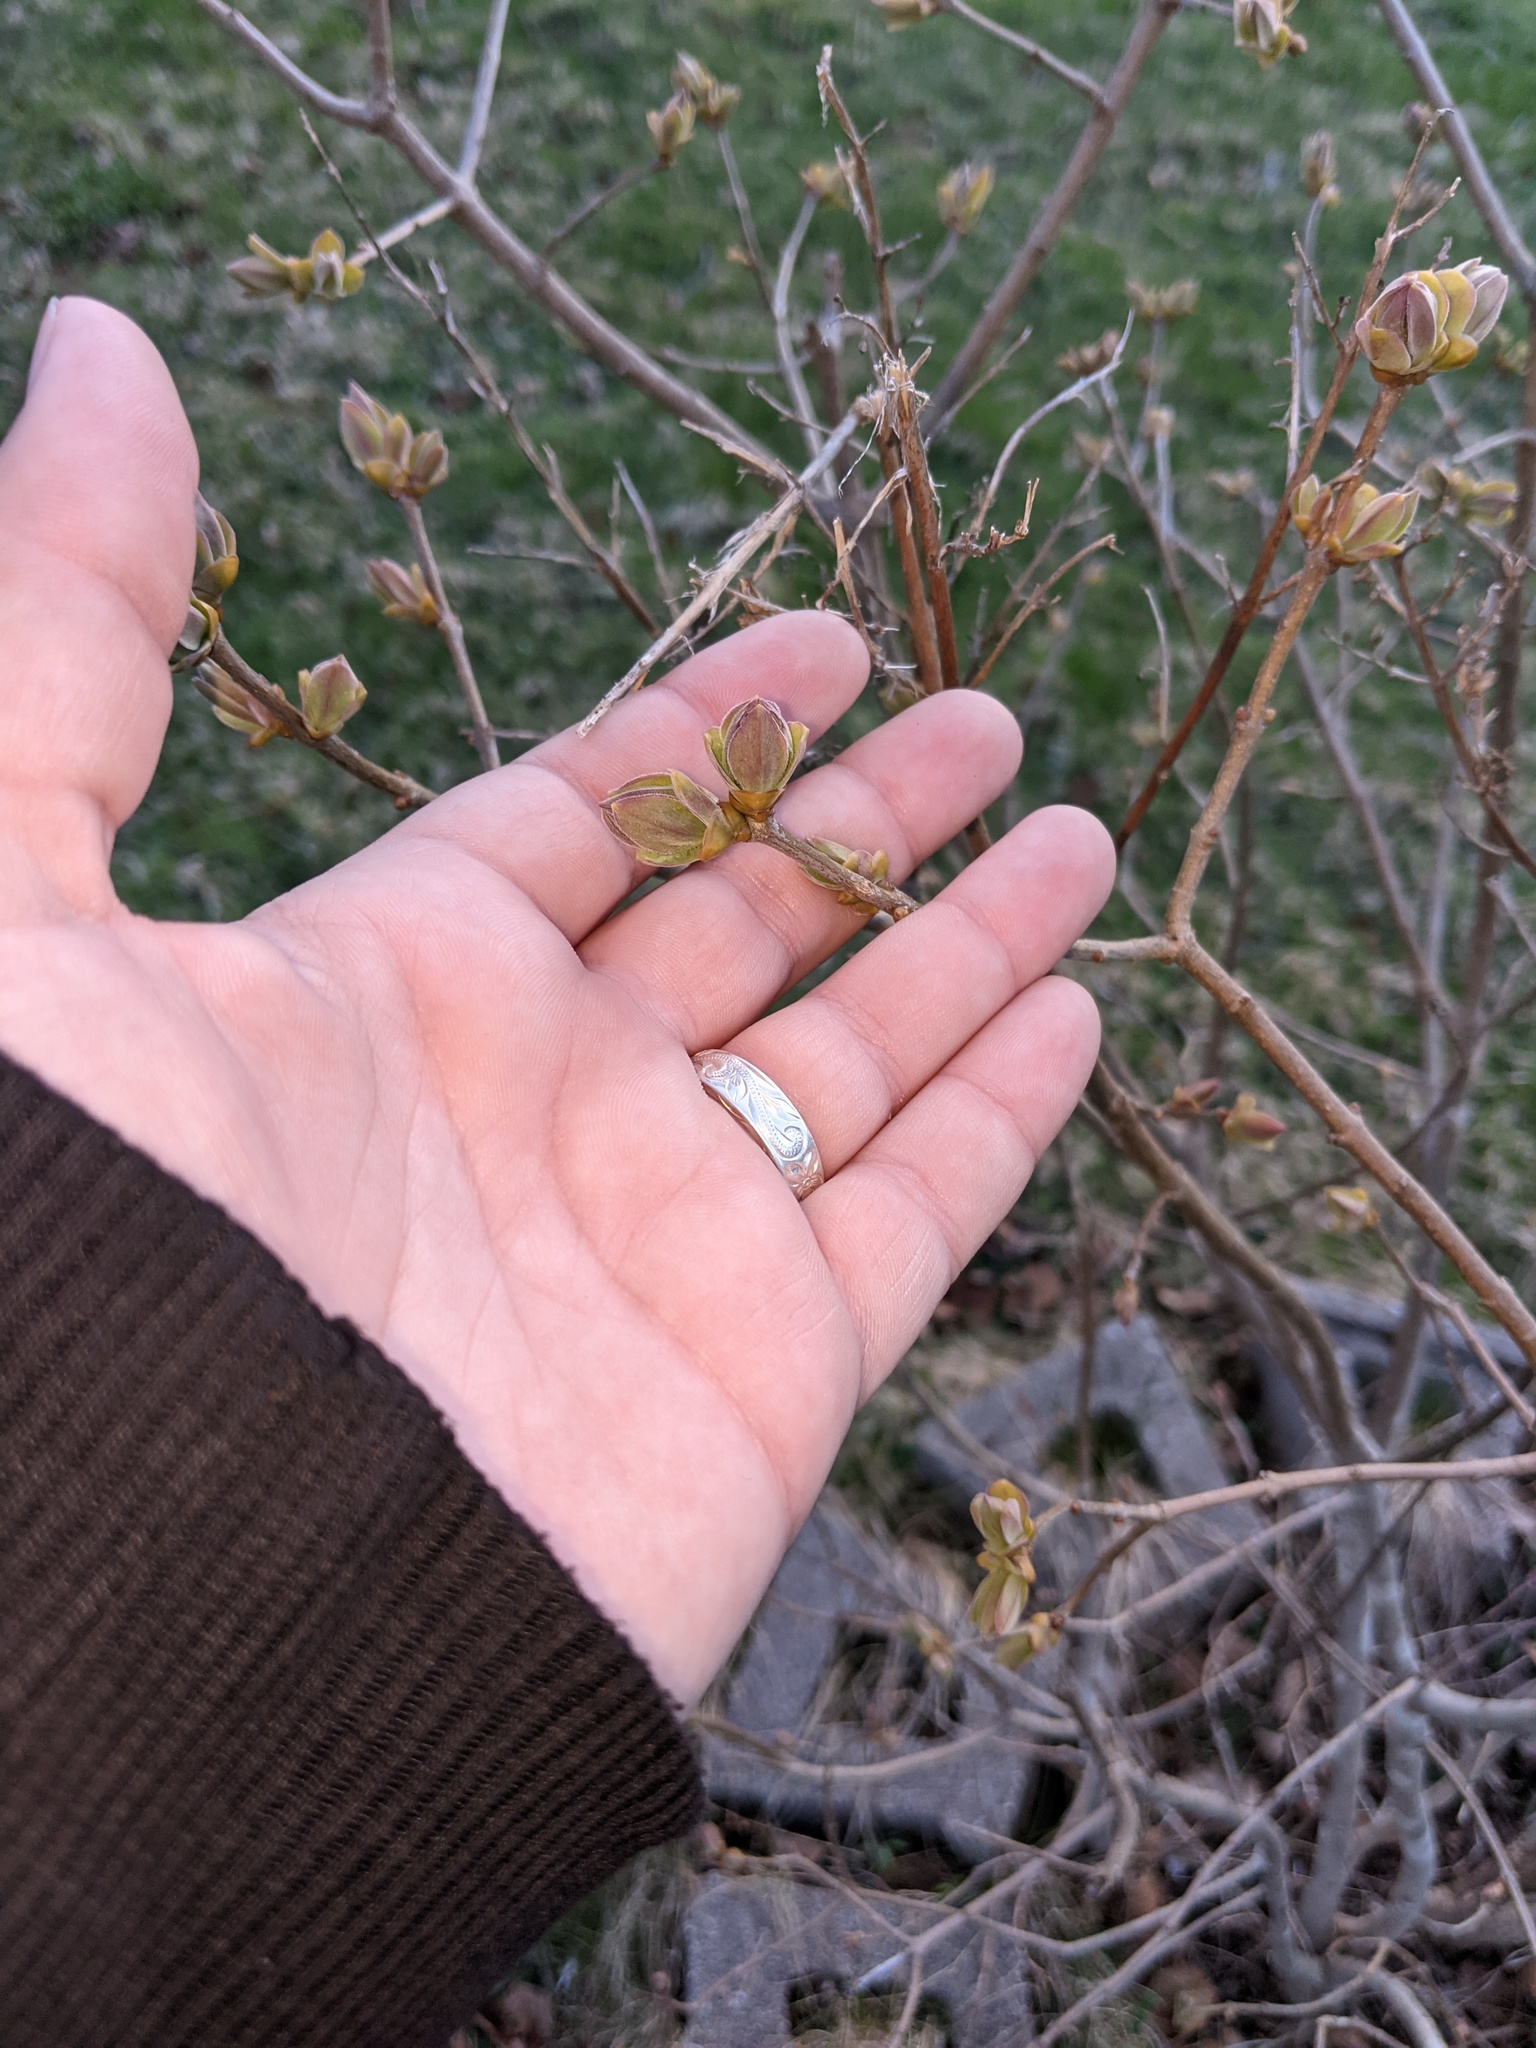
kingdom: Plantae
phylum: Tracheophyta
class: Magnoliopsida
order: Lamiales
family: Oleaceae
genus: Syringa
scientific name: Syringa vulgaris
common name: Common lilac
